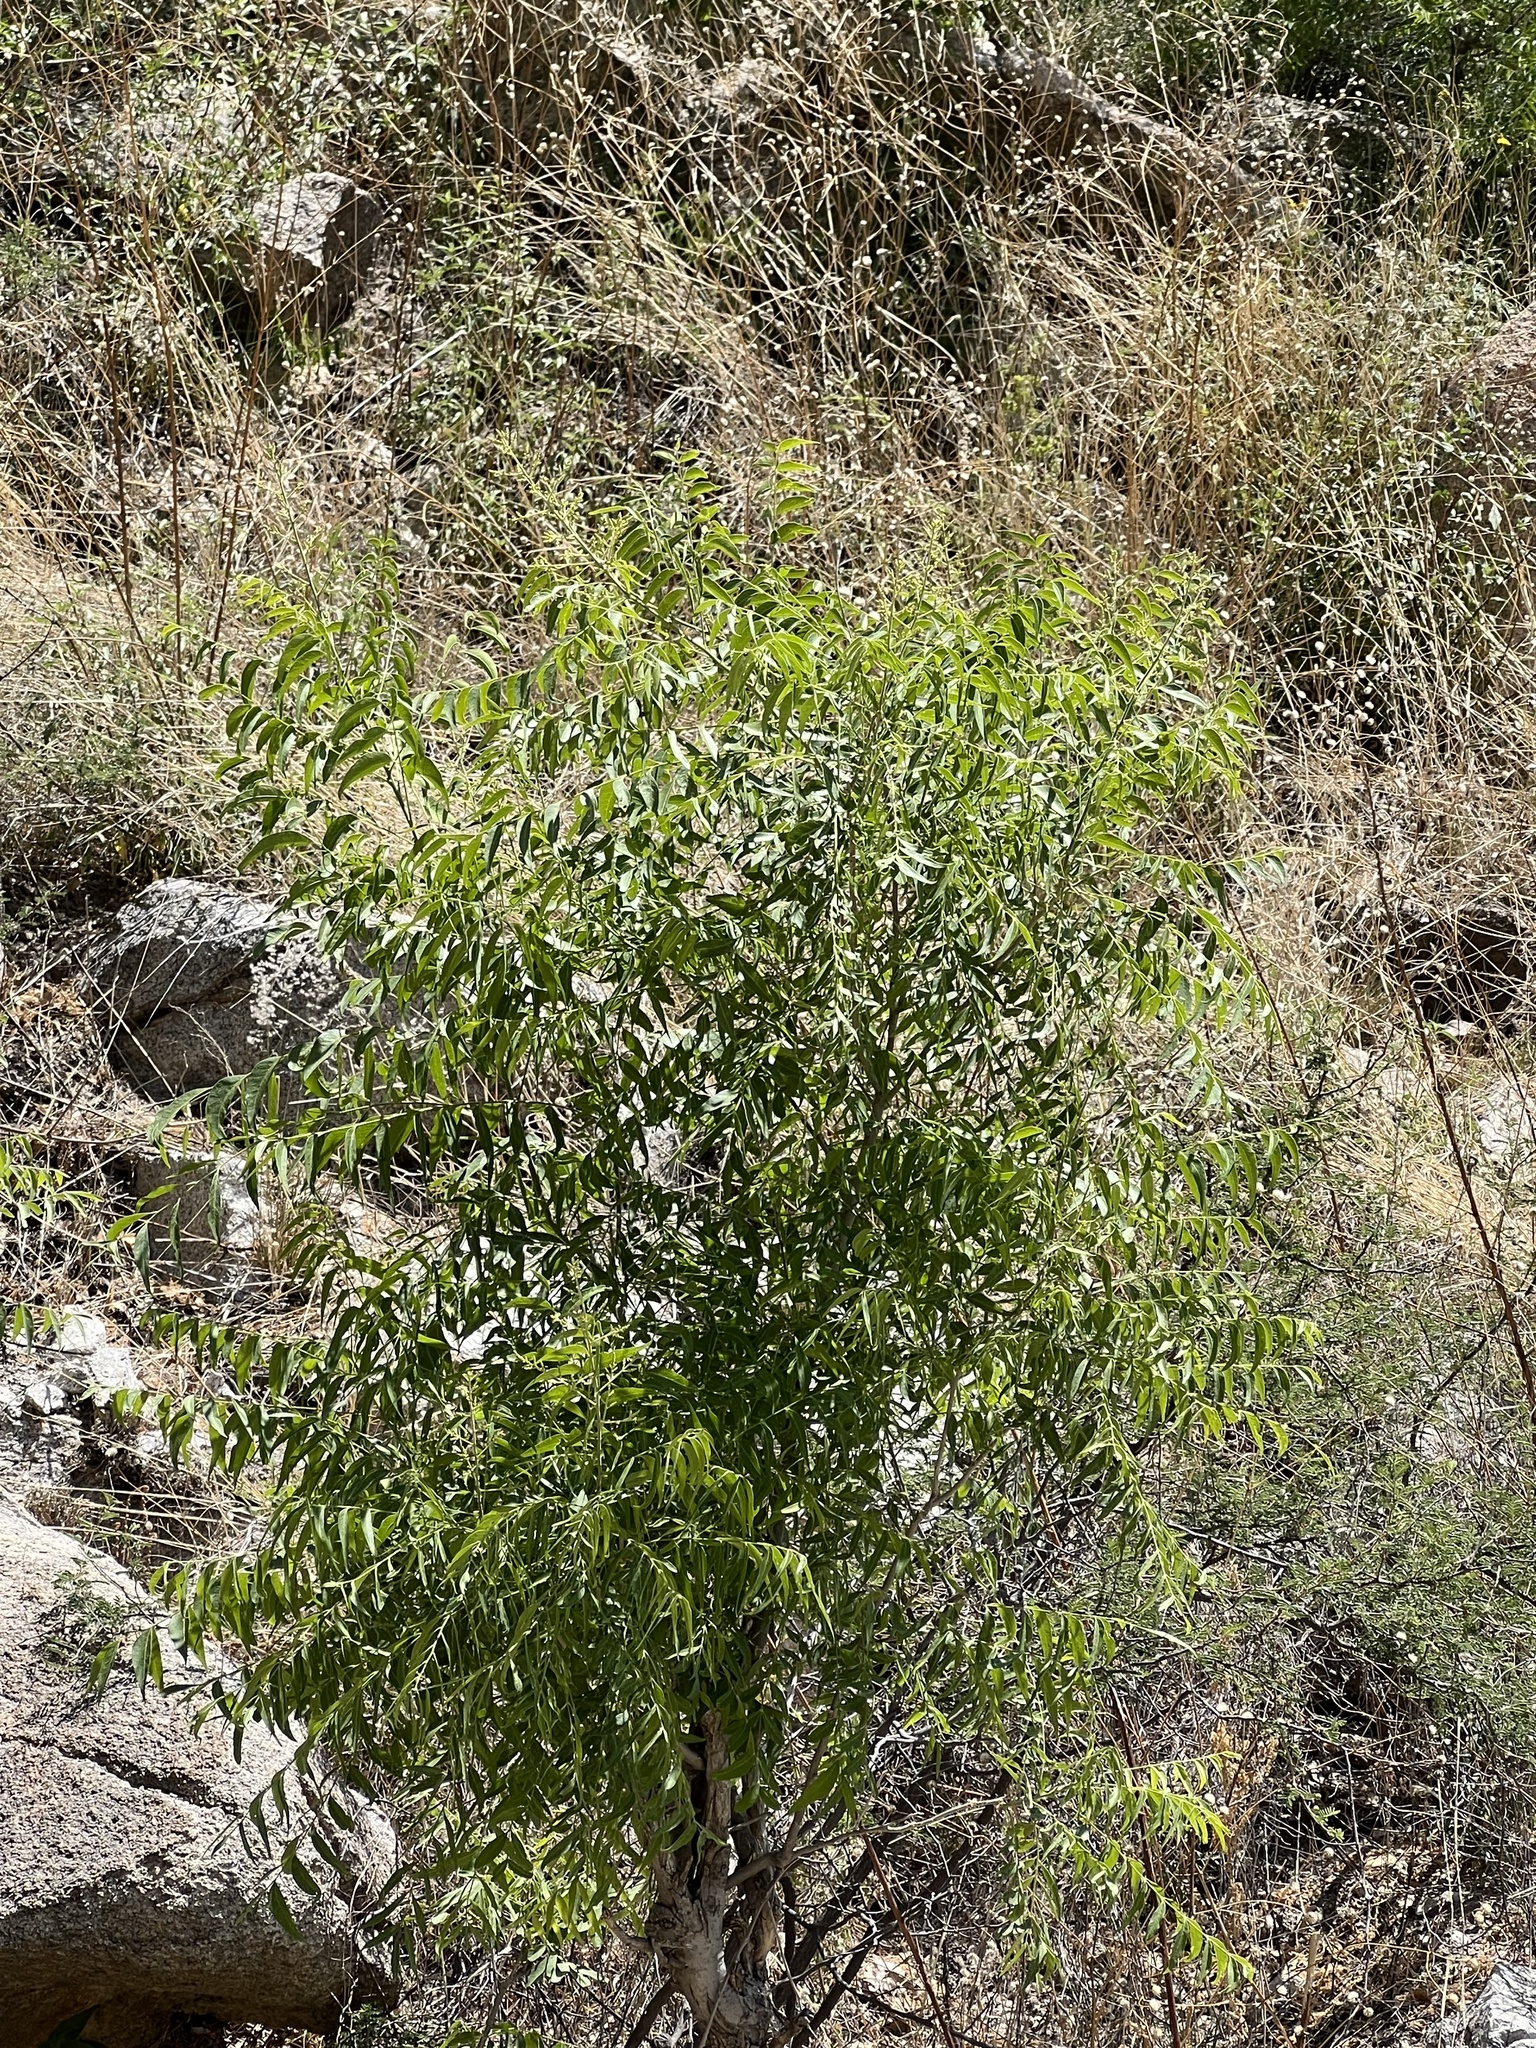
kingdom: Plantae
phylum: Tracheophyta
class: Magnoliopsida
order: Fagales
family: Juglandaceae
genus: Juglans
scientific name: Juglans major
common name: Arizona walnut
